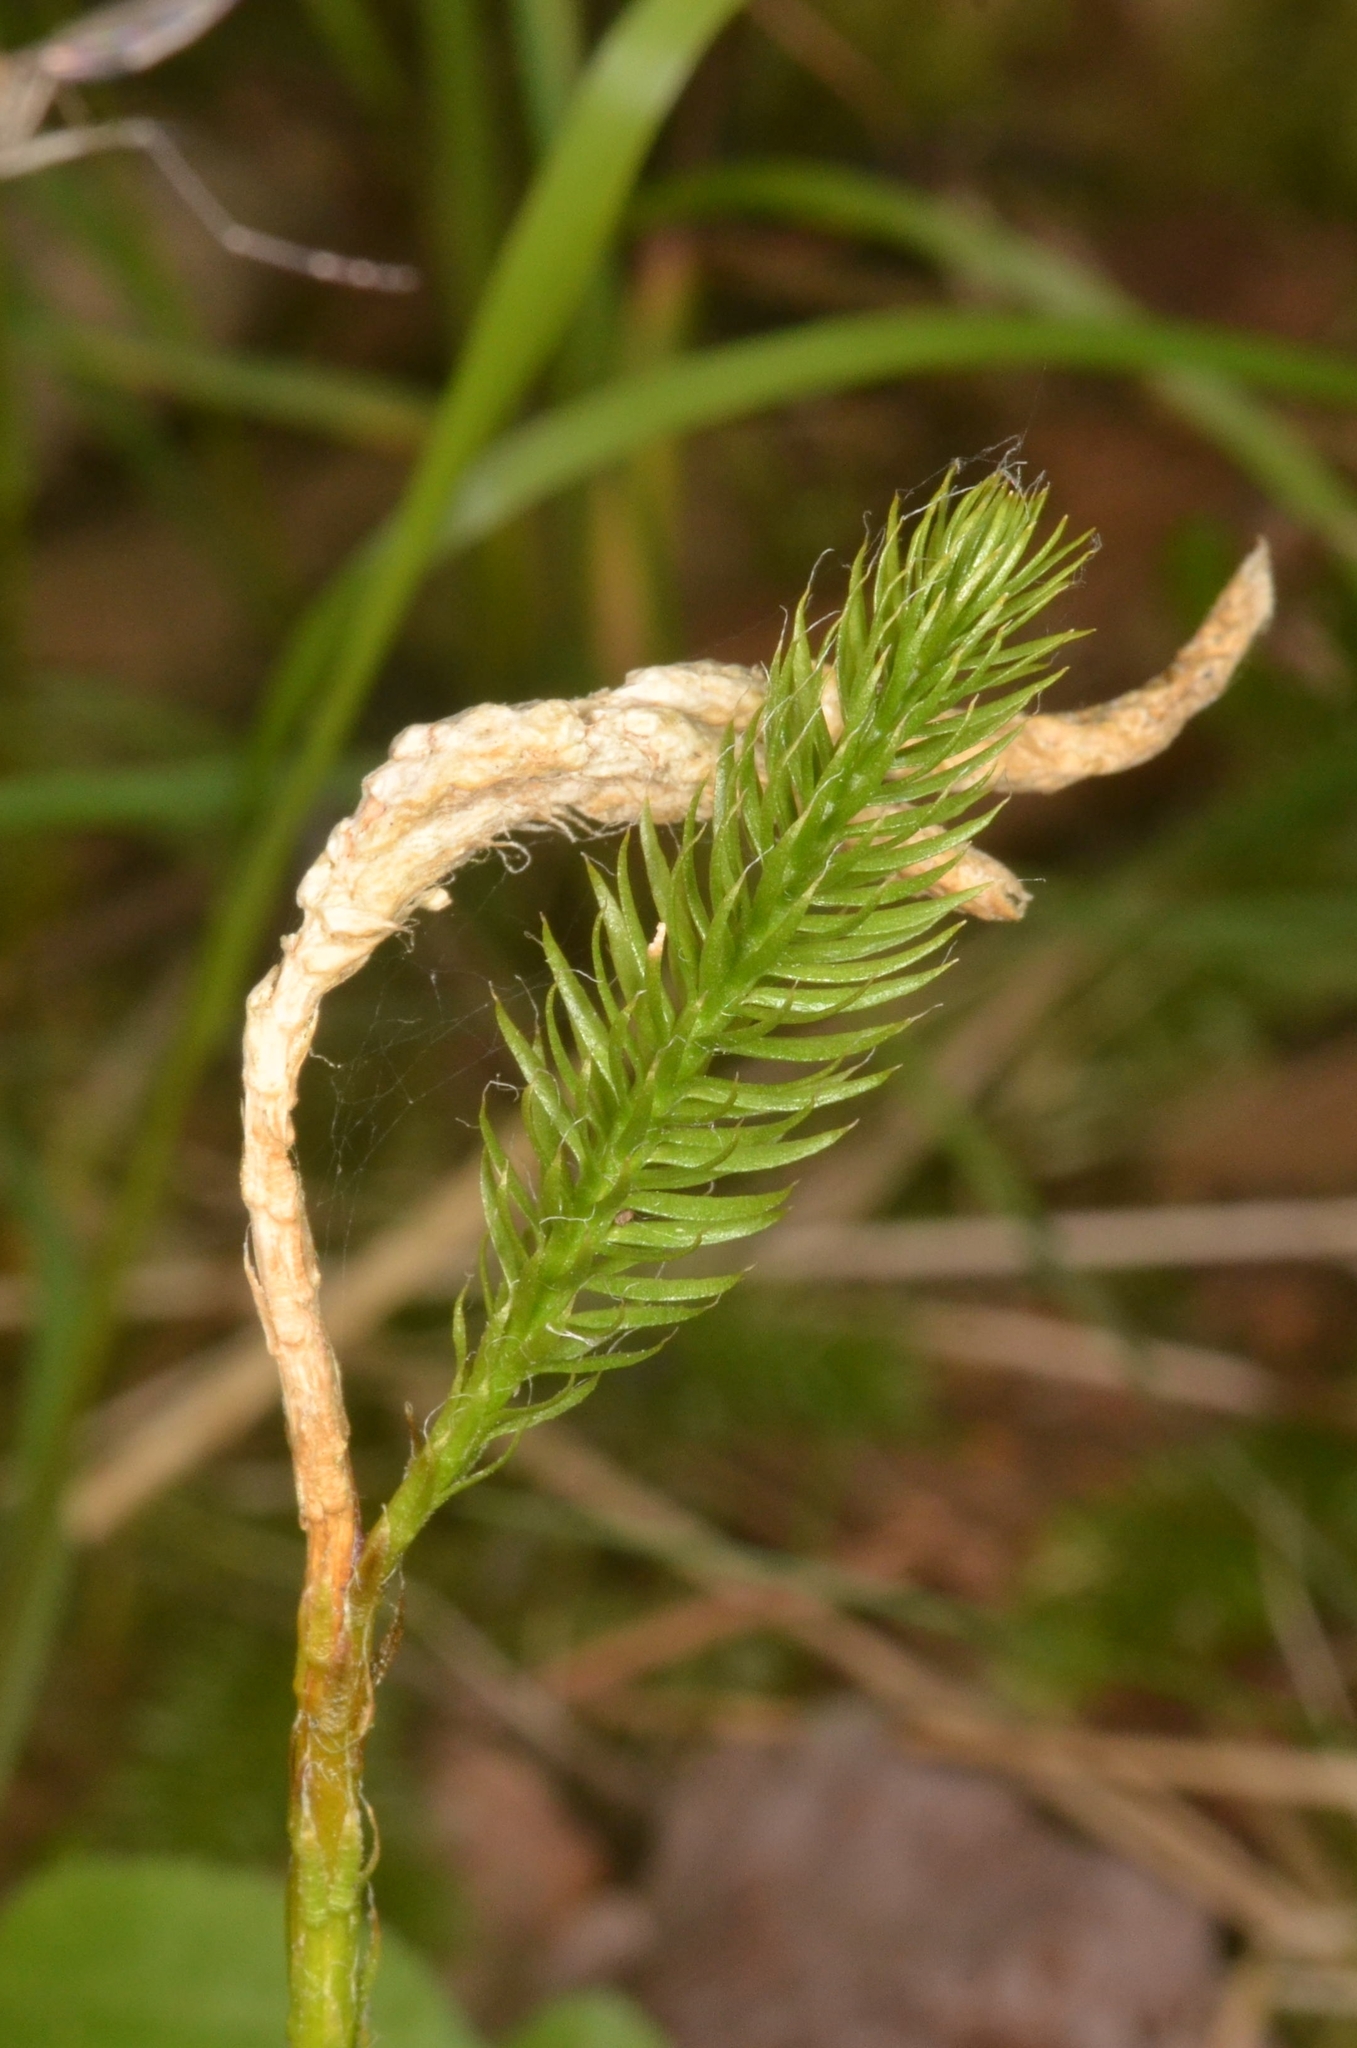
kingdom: Plantae
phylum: Tracheophyta
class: Lycopodiopsida
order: Lycopodiales
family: Lycopodiaceae
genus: Lycopodium
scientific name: Lycopodium clavatum
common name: Stag's-horn clubmoss
